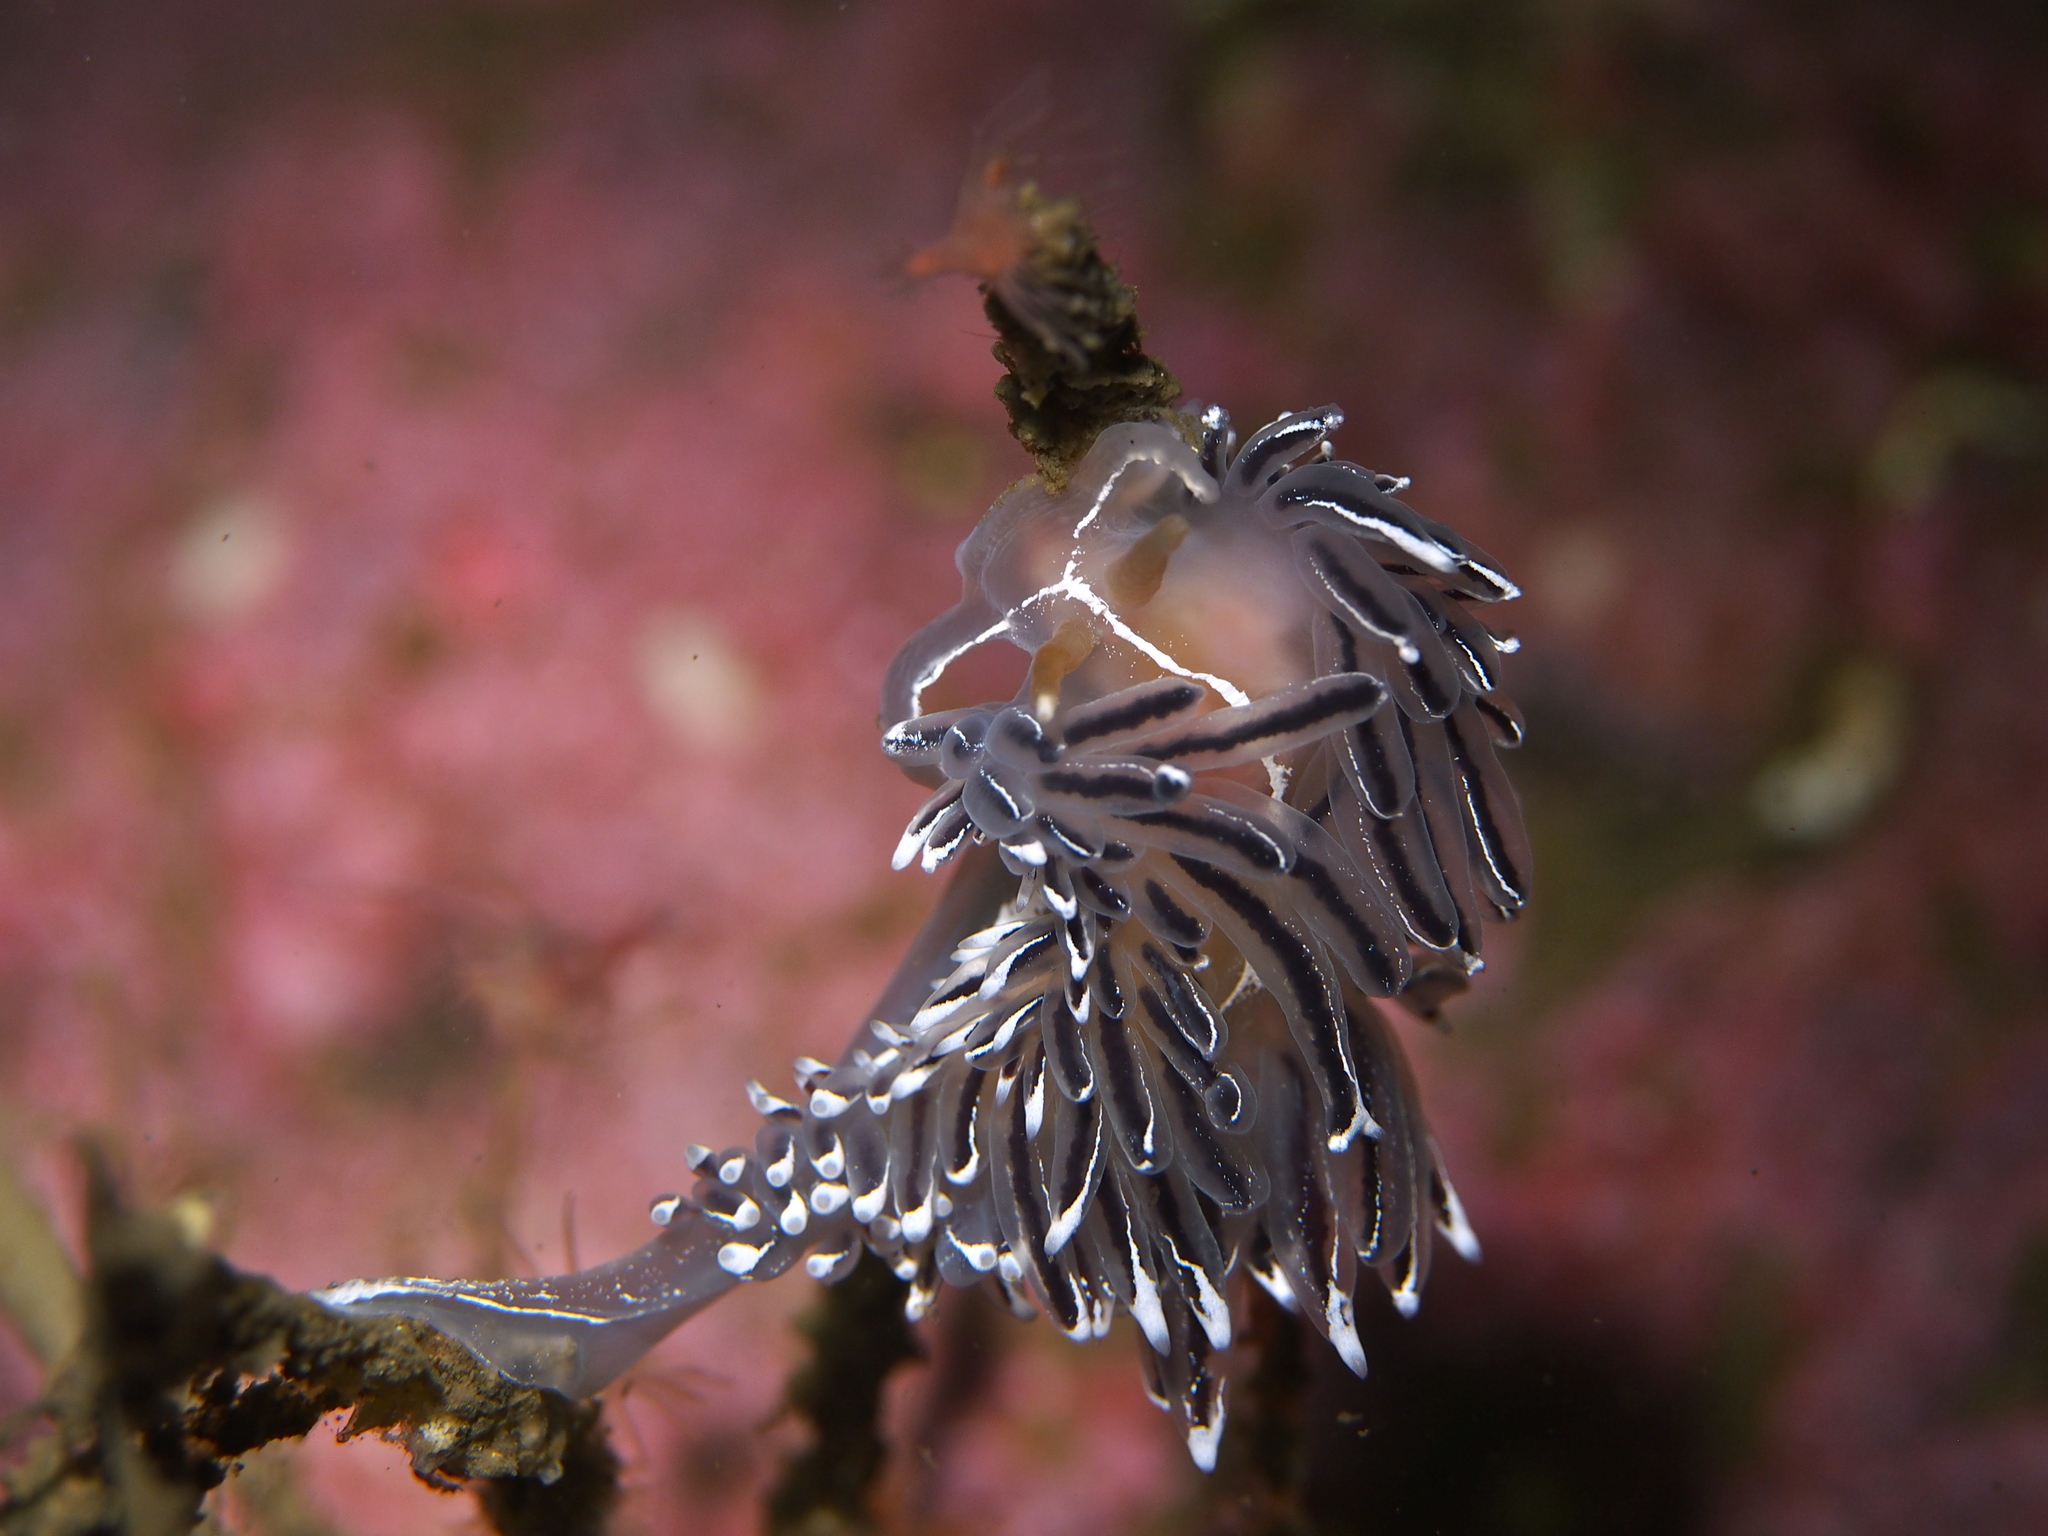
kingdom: Animalia
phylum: Mollusca
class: Gastropoda
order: Nudibranchia
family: Coryphellidae
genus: Coryphella
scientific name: Coryphella lineata
